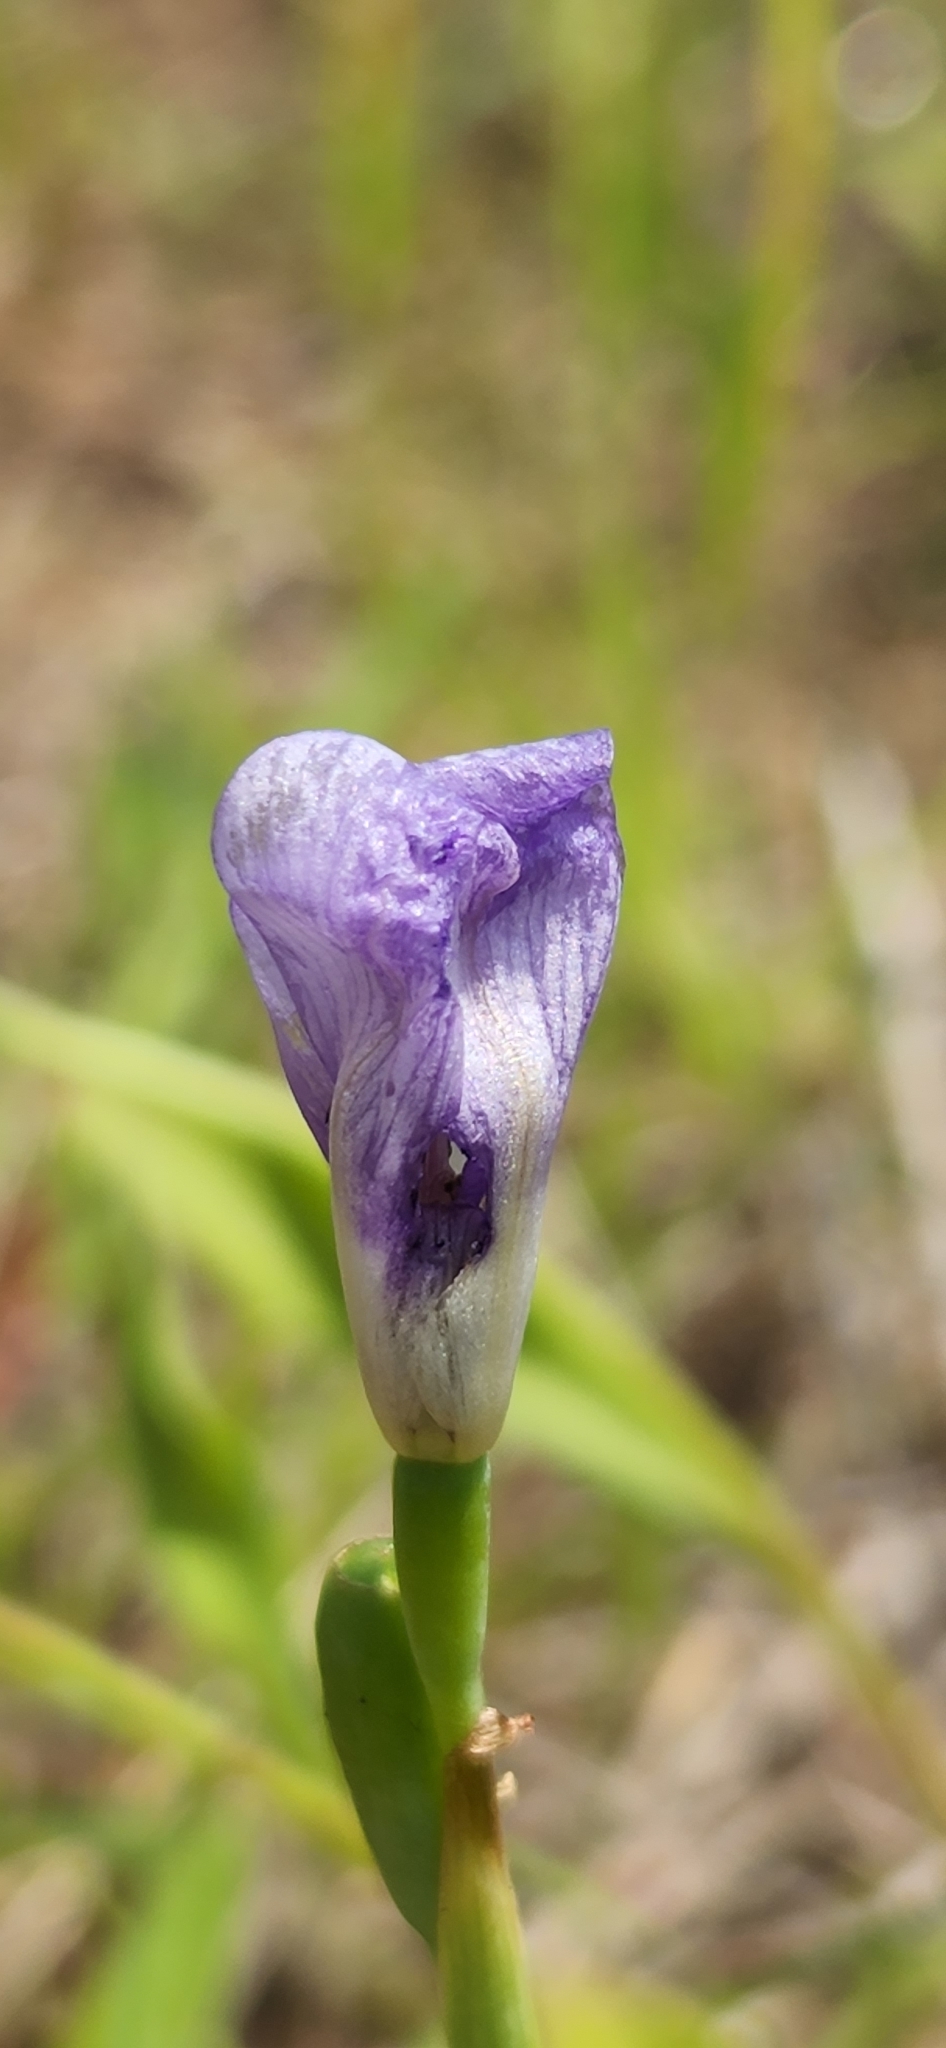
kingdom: Plantae
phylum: Tracheophyta
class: Liliopsida
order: Asparagales
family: Iridaceae
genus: Herbertia
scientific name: Herbertia lahue
